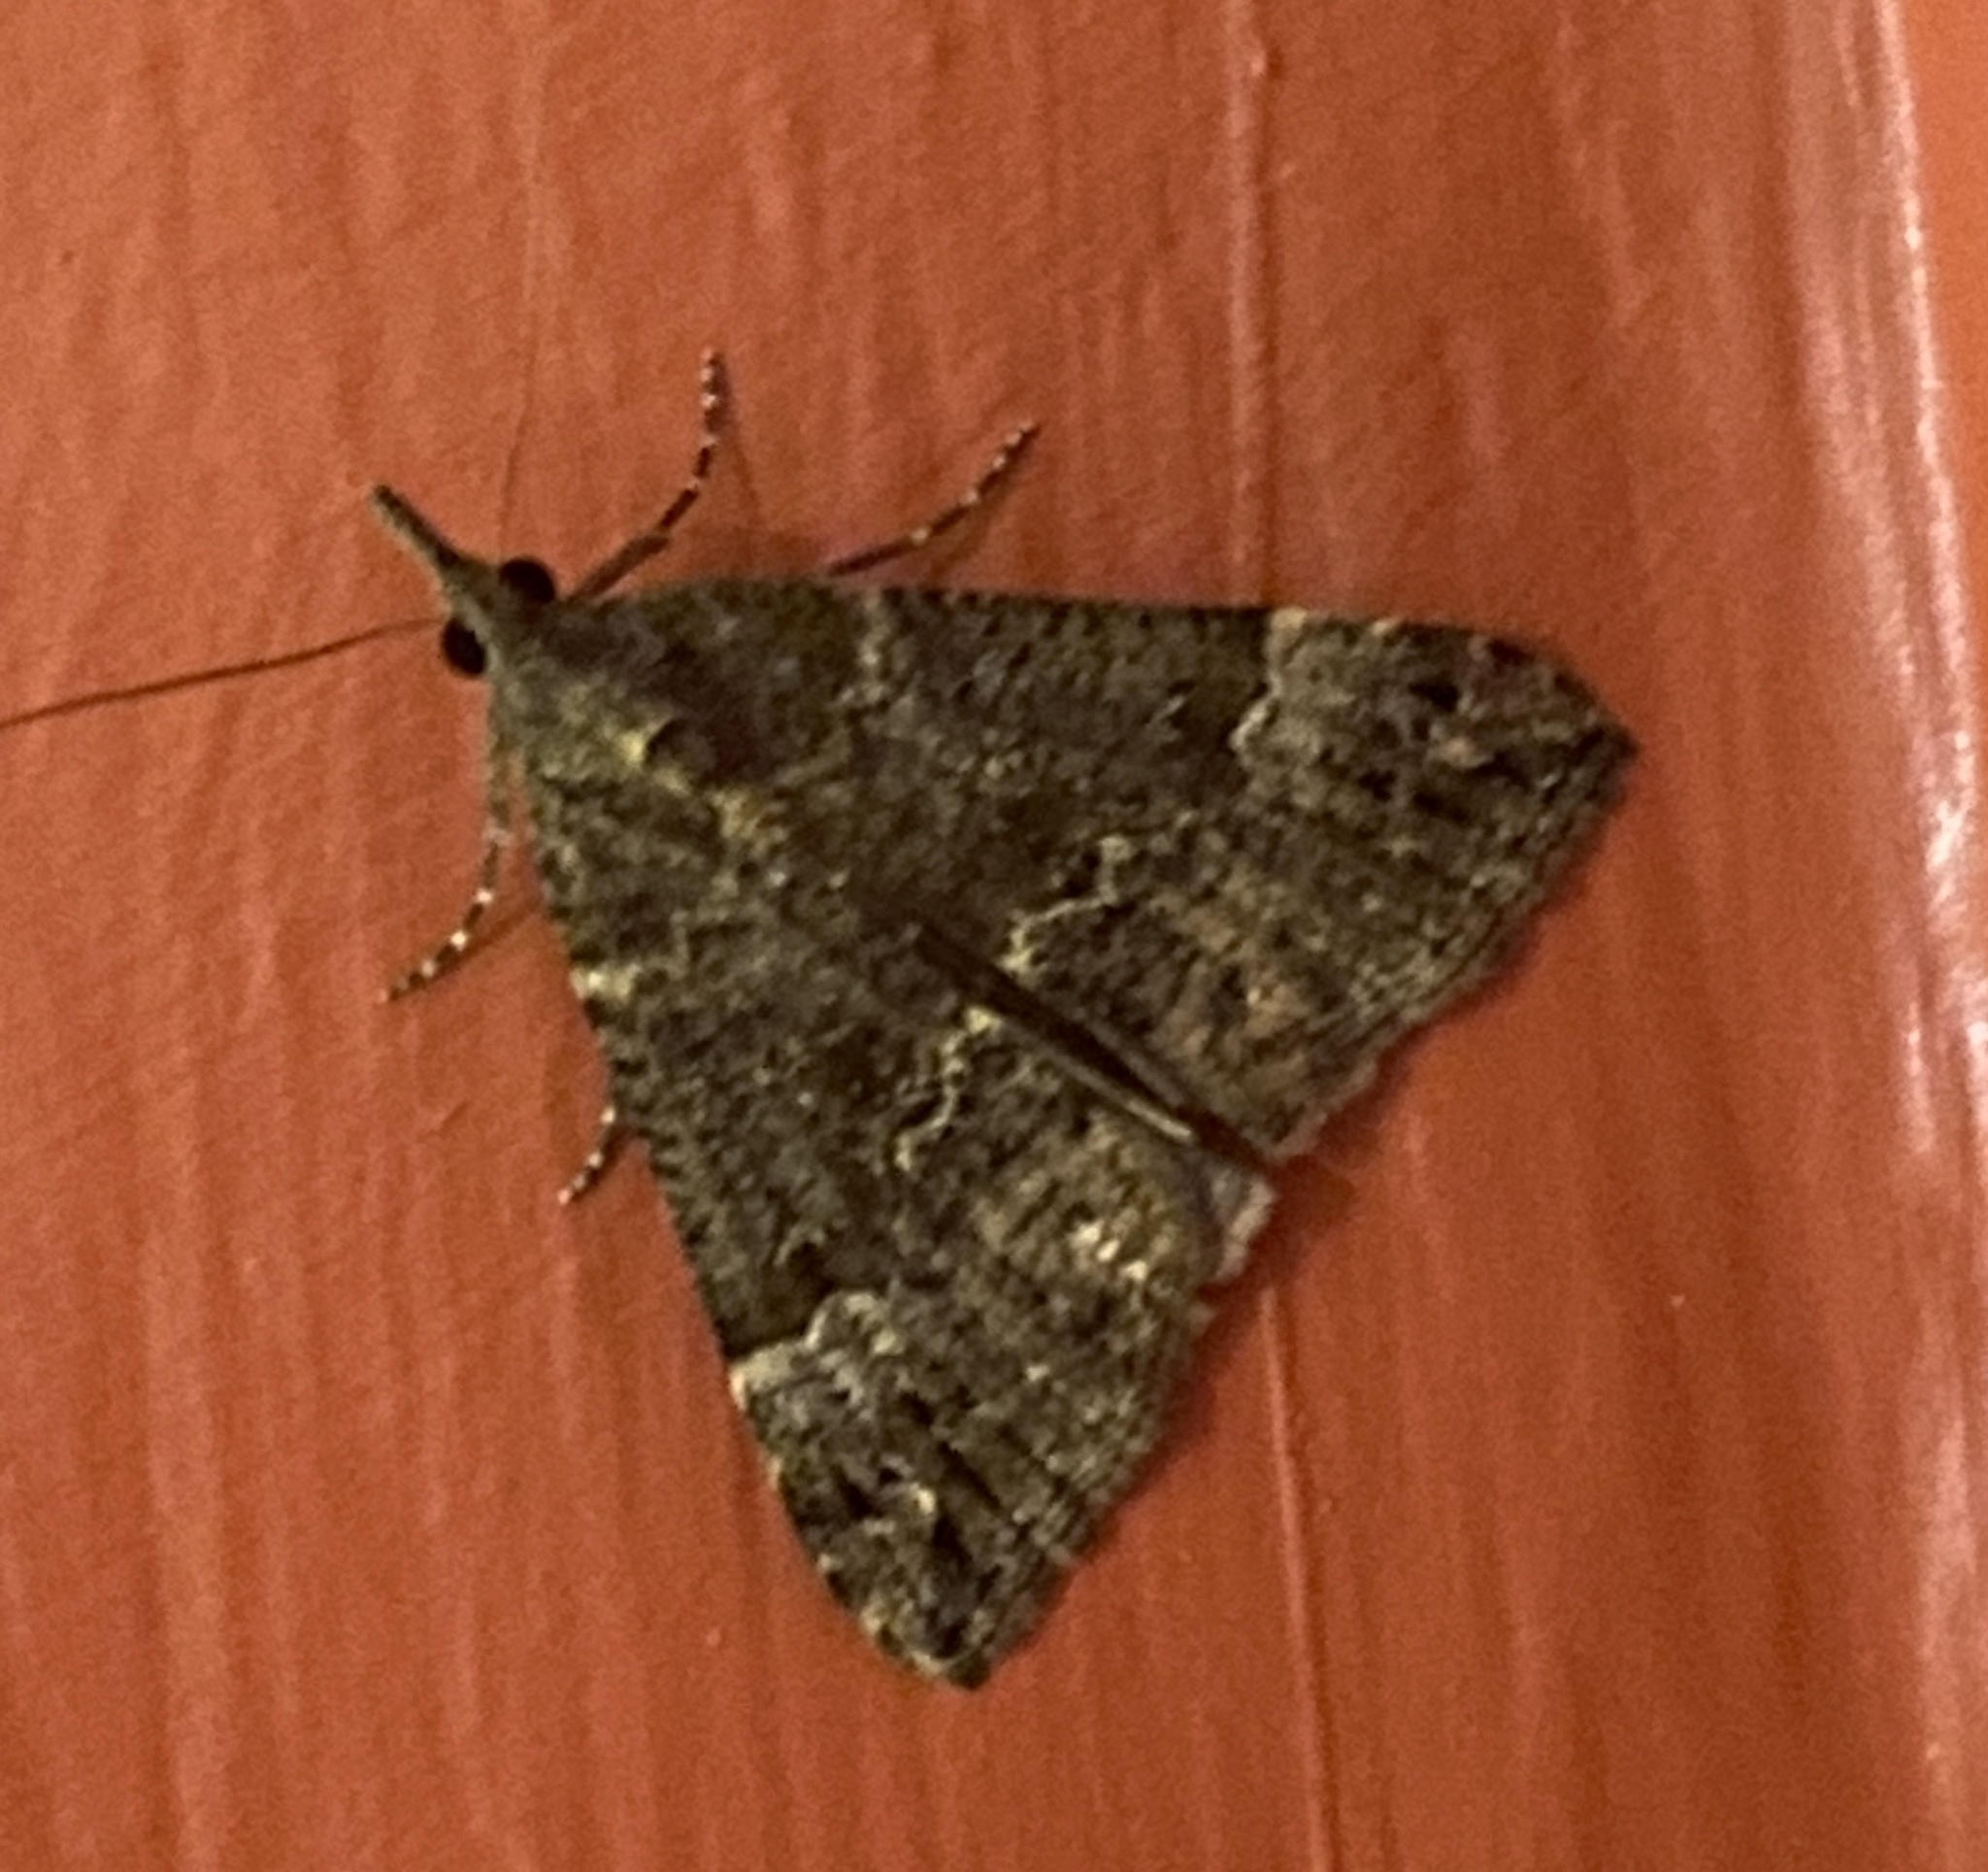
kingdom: Animalia
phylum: Arthropoda
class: Insecta
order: Lepidoptera
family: Erebidae
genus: Hypena
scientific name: Hypena obsitalis
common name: Bloxworth snout
